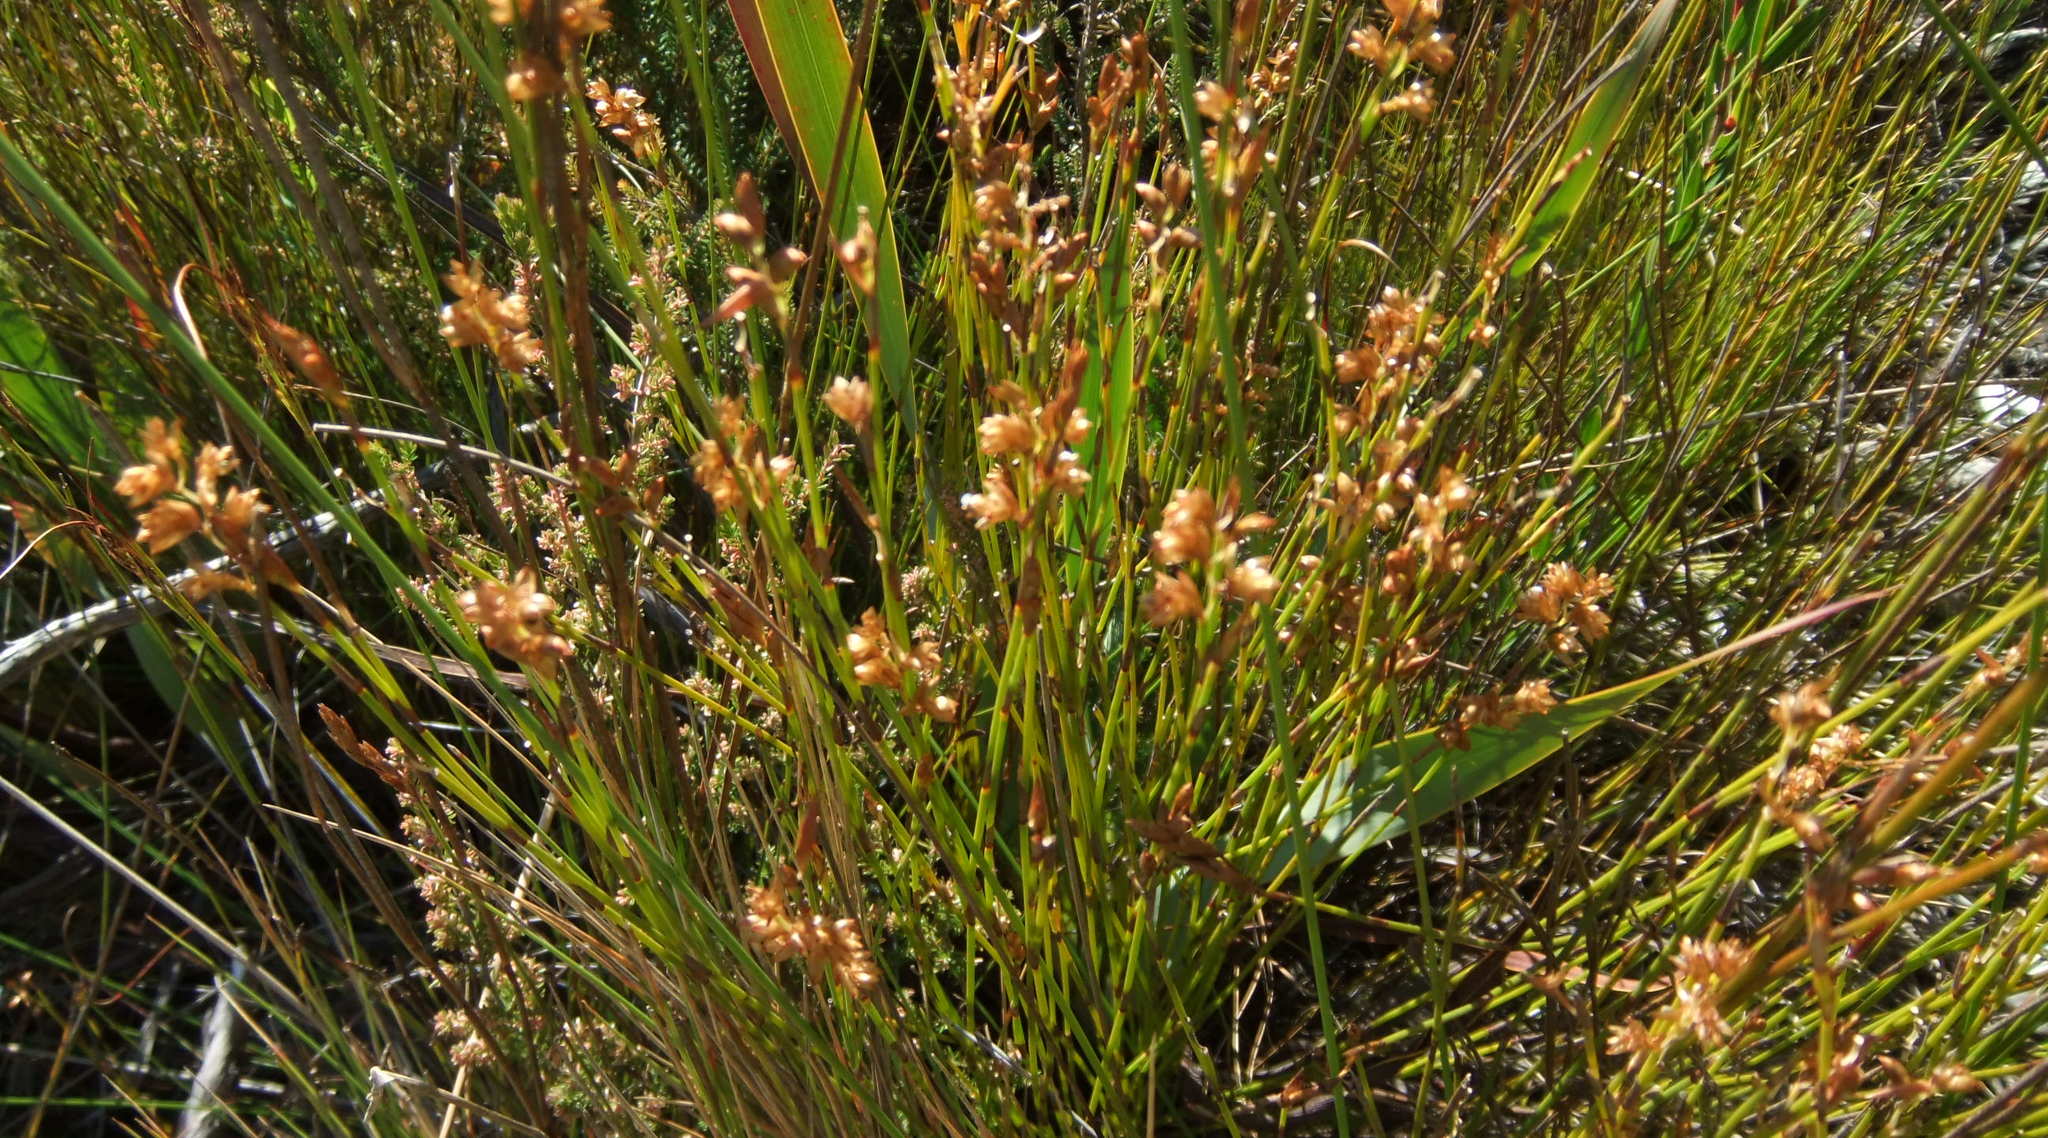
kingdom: Plantae
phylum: Tracheophyta
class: Liliopsida
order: Poales
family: Restionaceae
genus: Mastersiella
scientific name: Mastersiella purpurea
